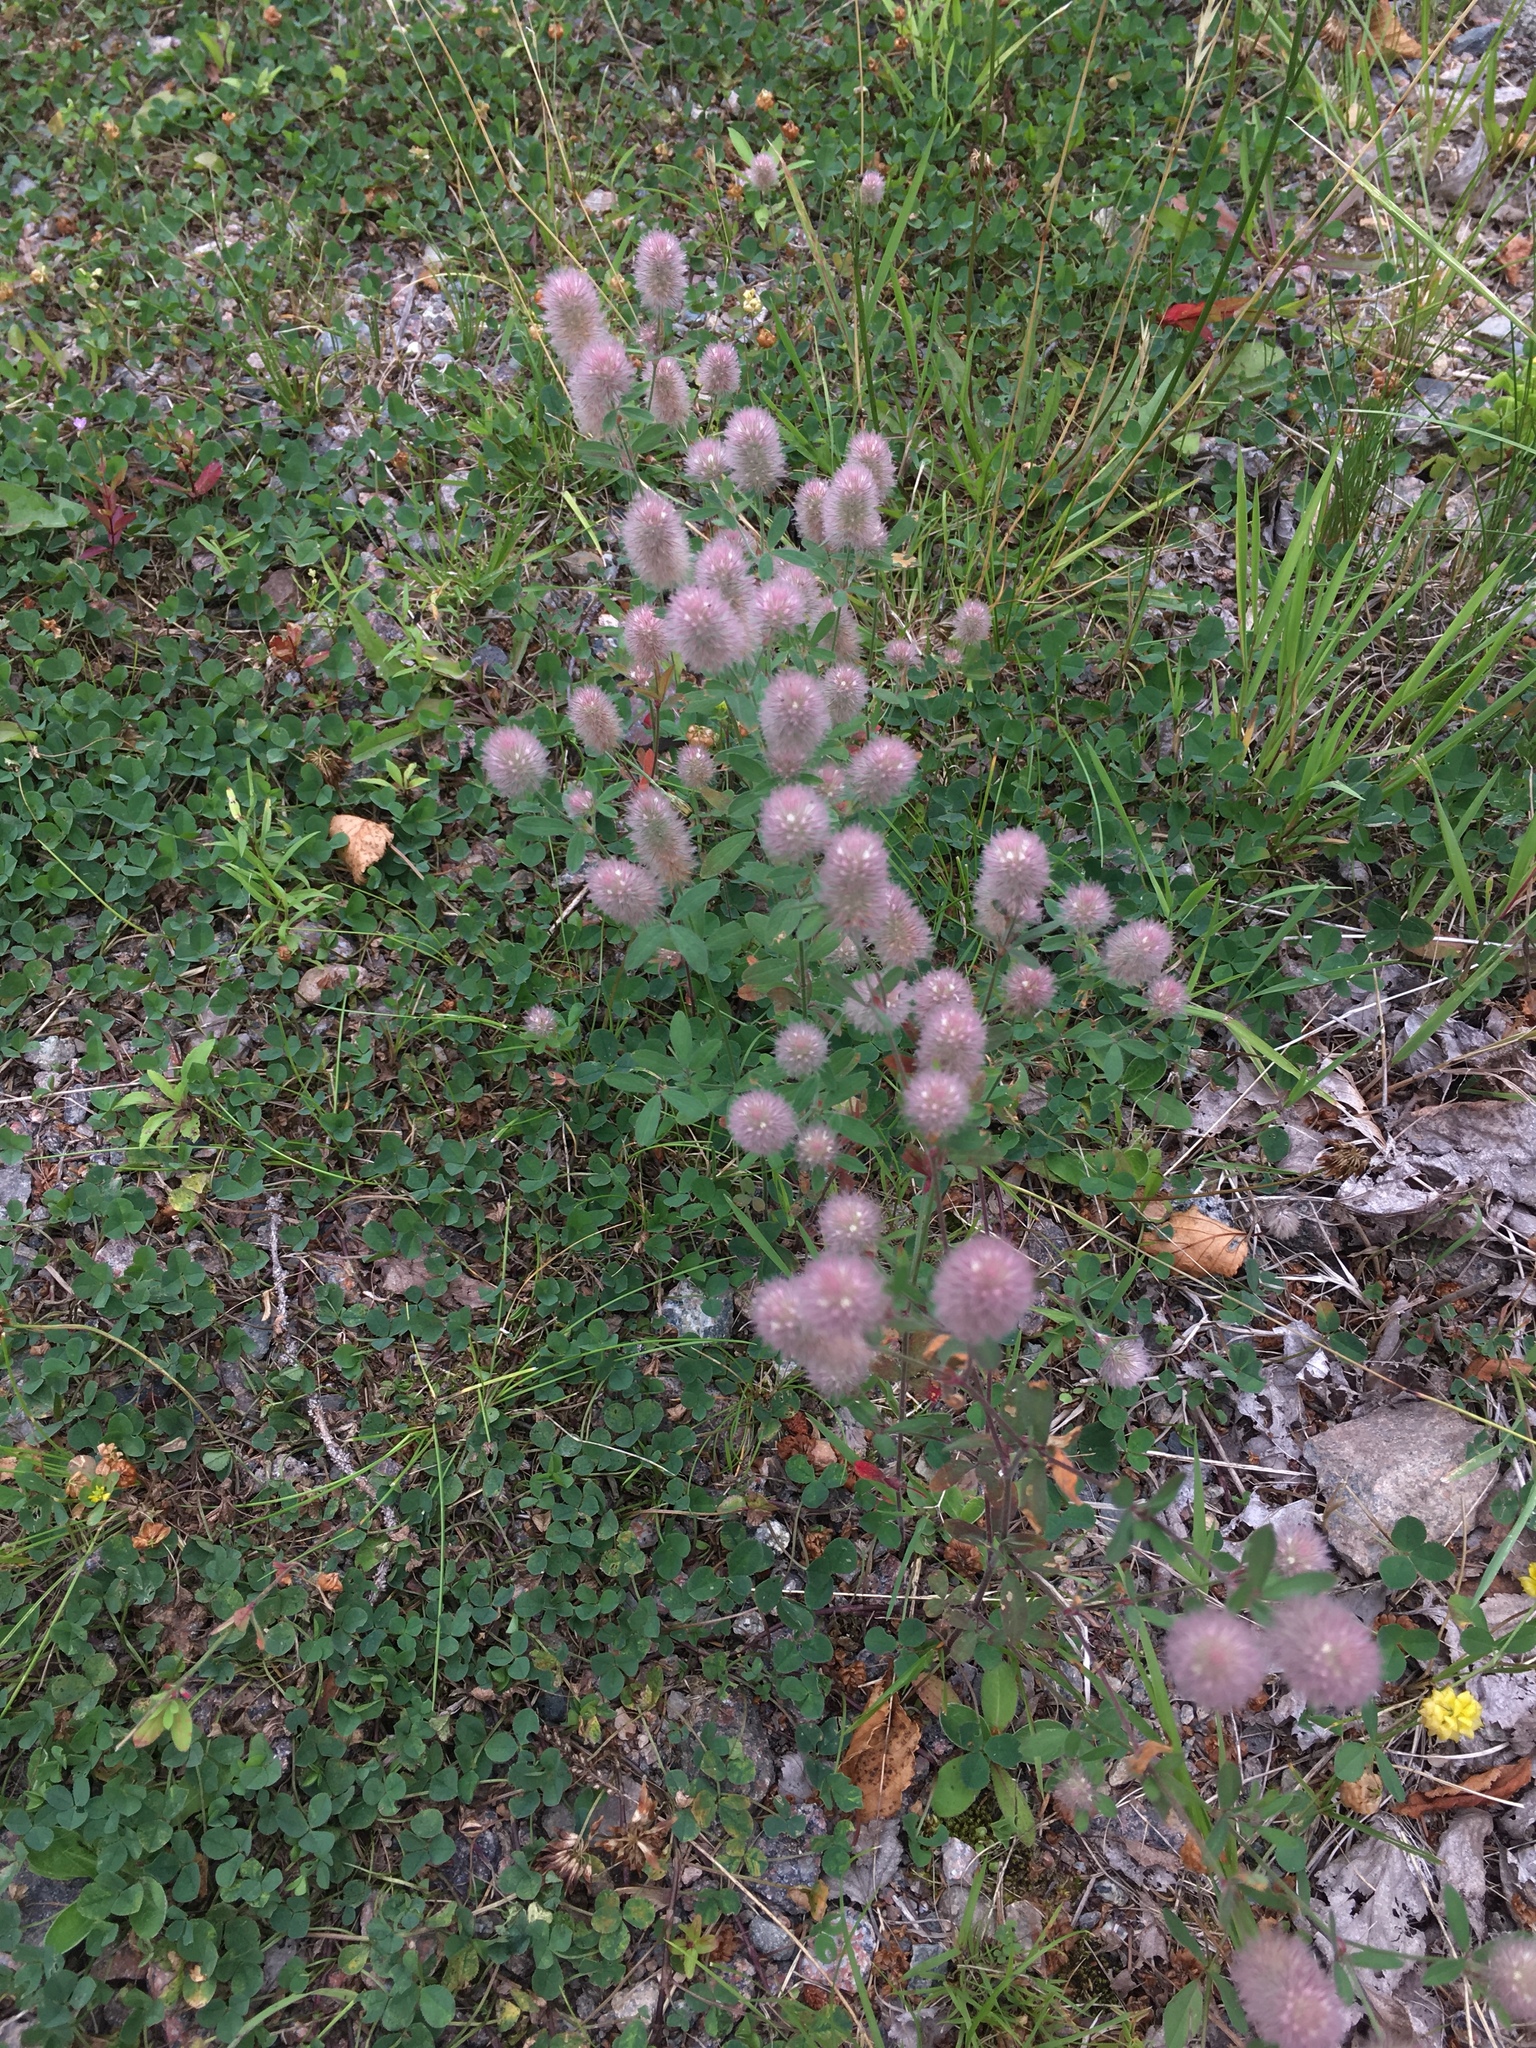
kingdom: Plantae
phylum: Tracheophyta
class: Magnoliopsida
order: Fabales
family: Fabaceae
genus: Trifolium
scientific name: Trifolium arvense
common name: Hare's-foot clover
